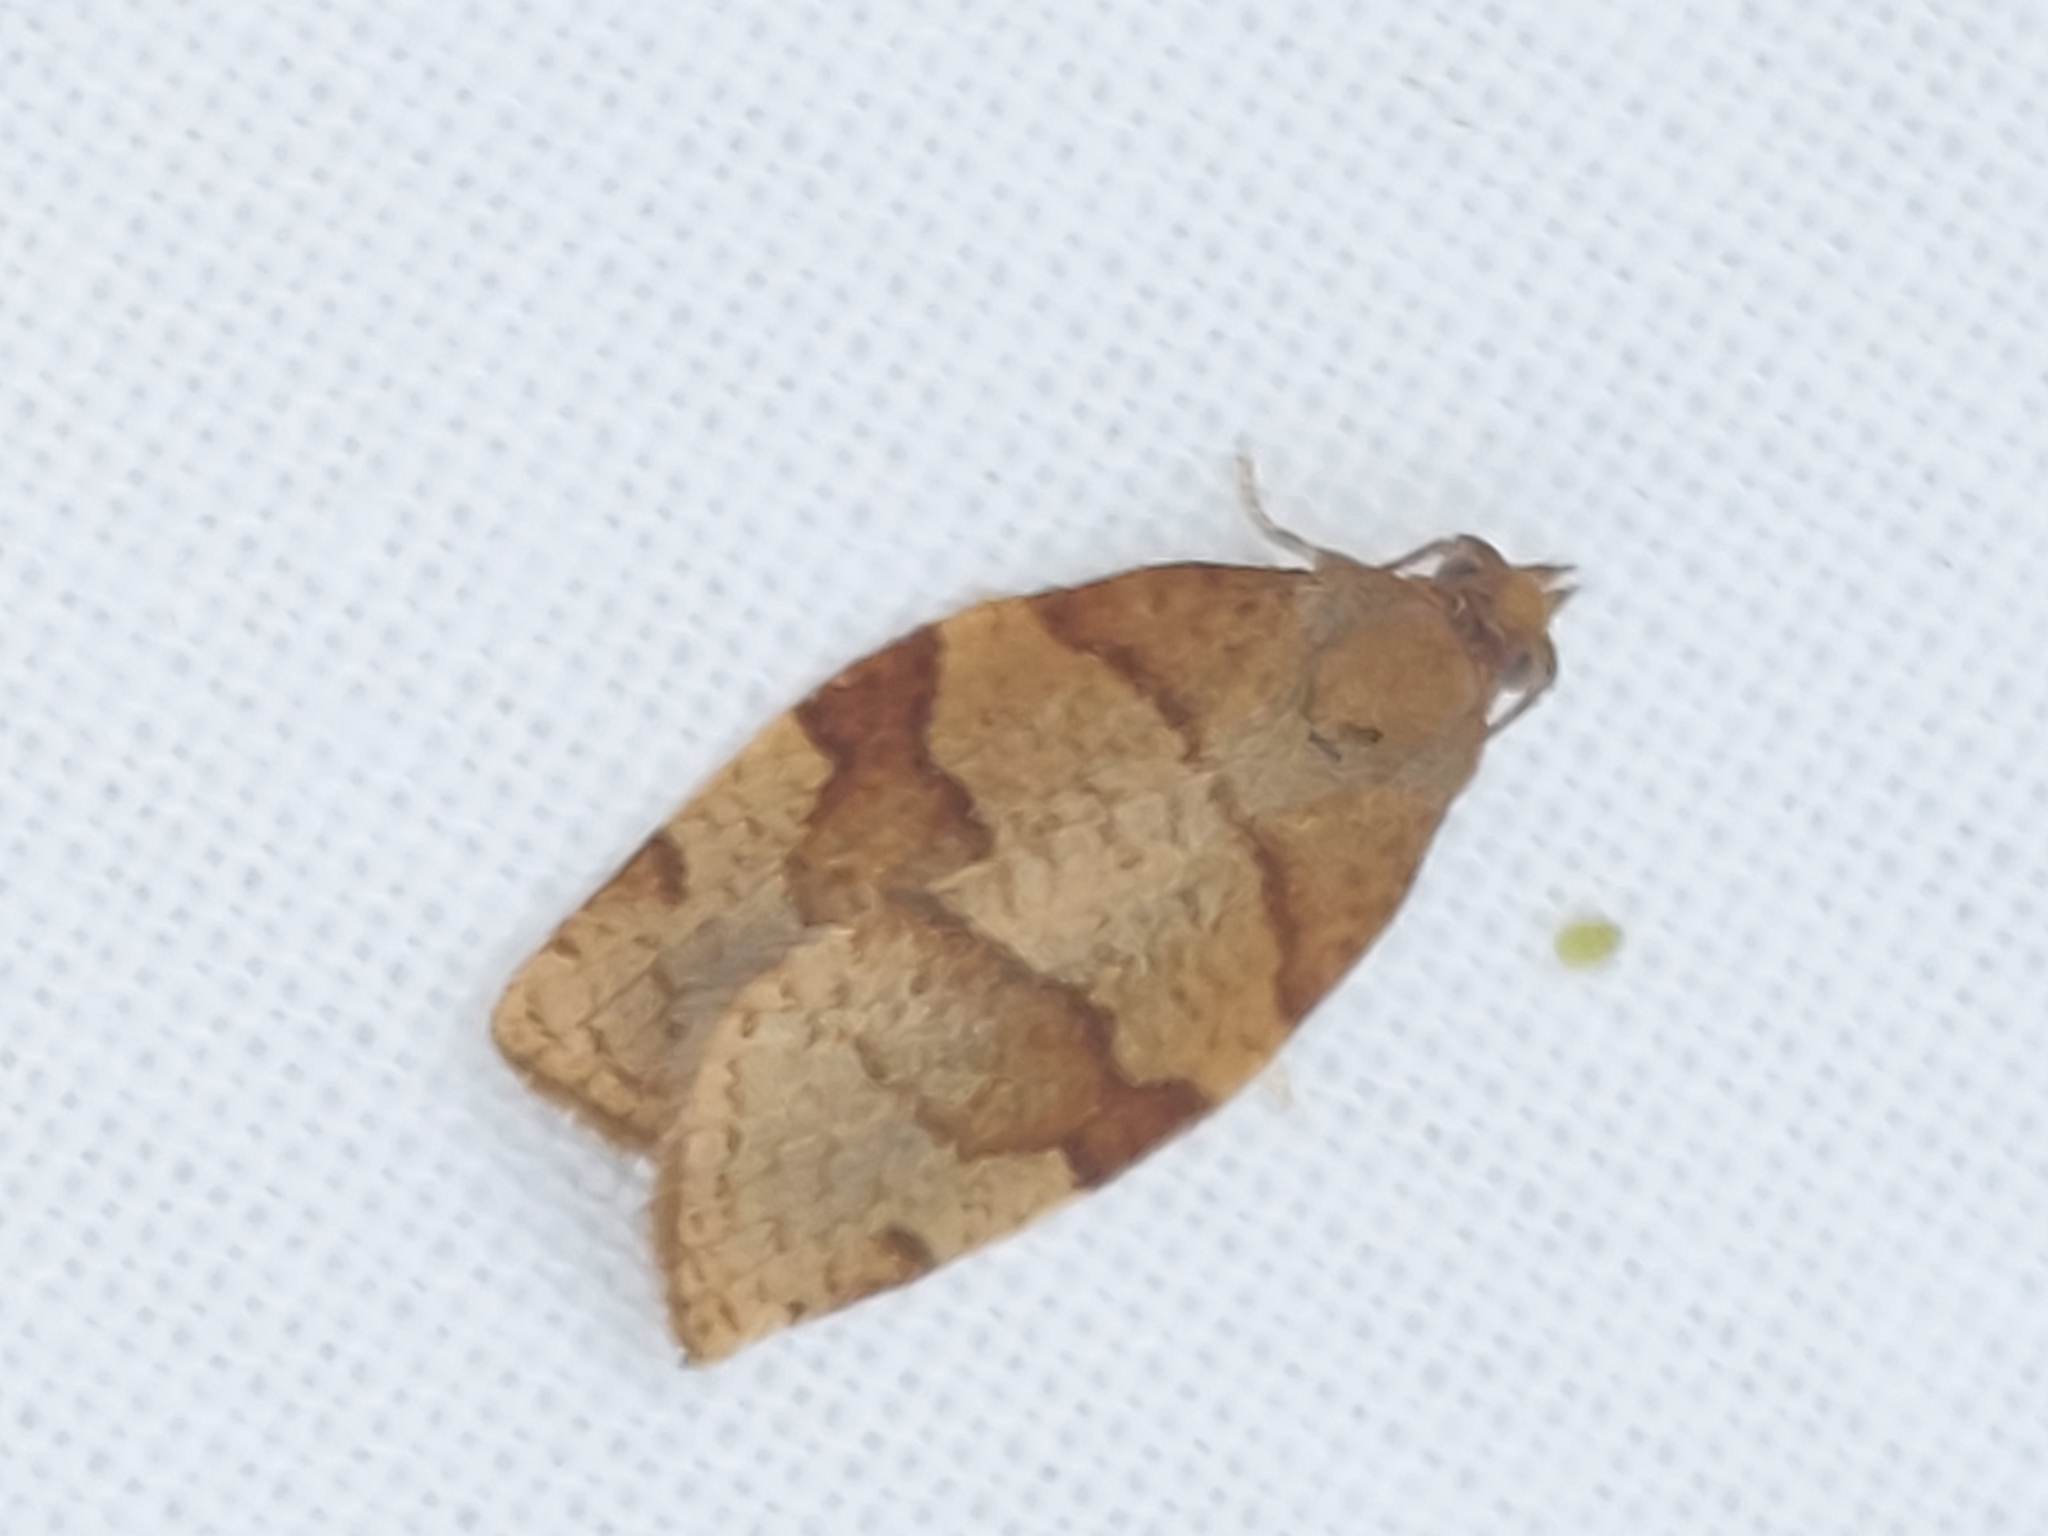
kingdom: Animalia
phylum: Arthropoda
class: Insecta
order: Lepidoptera
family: Tortricidae
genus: Pandemis
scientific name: Pandemis cerasana
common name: Barred fruit-tree tortrix
